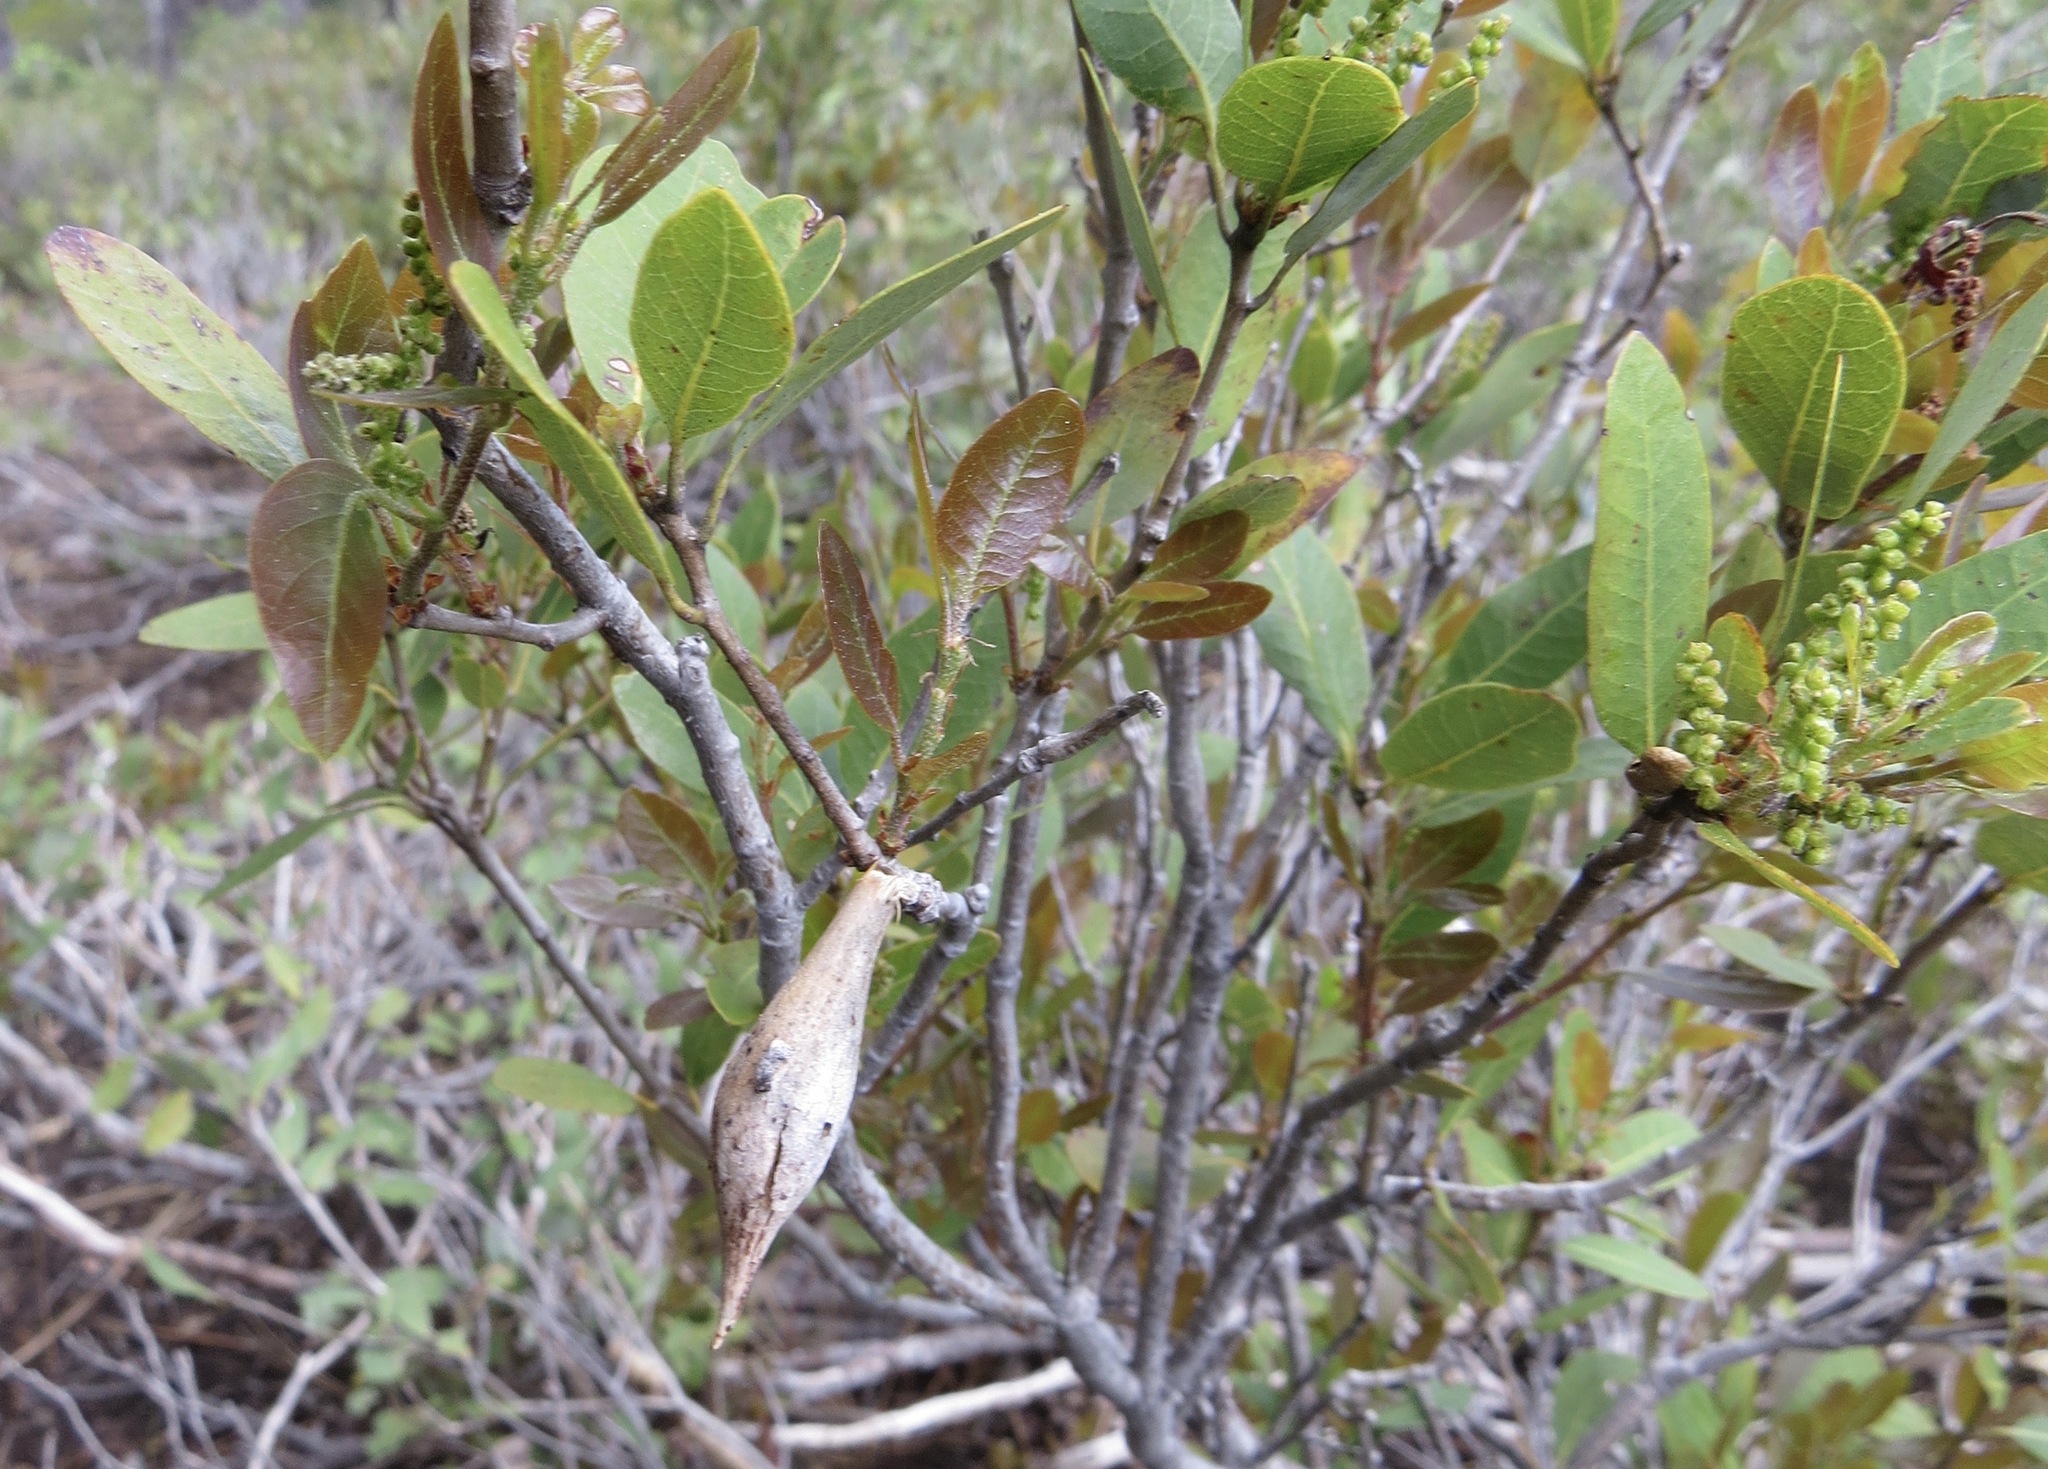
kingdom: Animalia
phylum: Arthropoda
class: Insecta
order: Hymenoptera
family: Cynipidae
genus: Heteroecus
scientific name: Heteroecus pacificus
